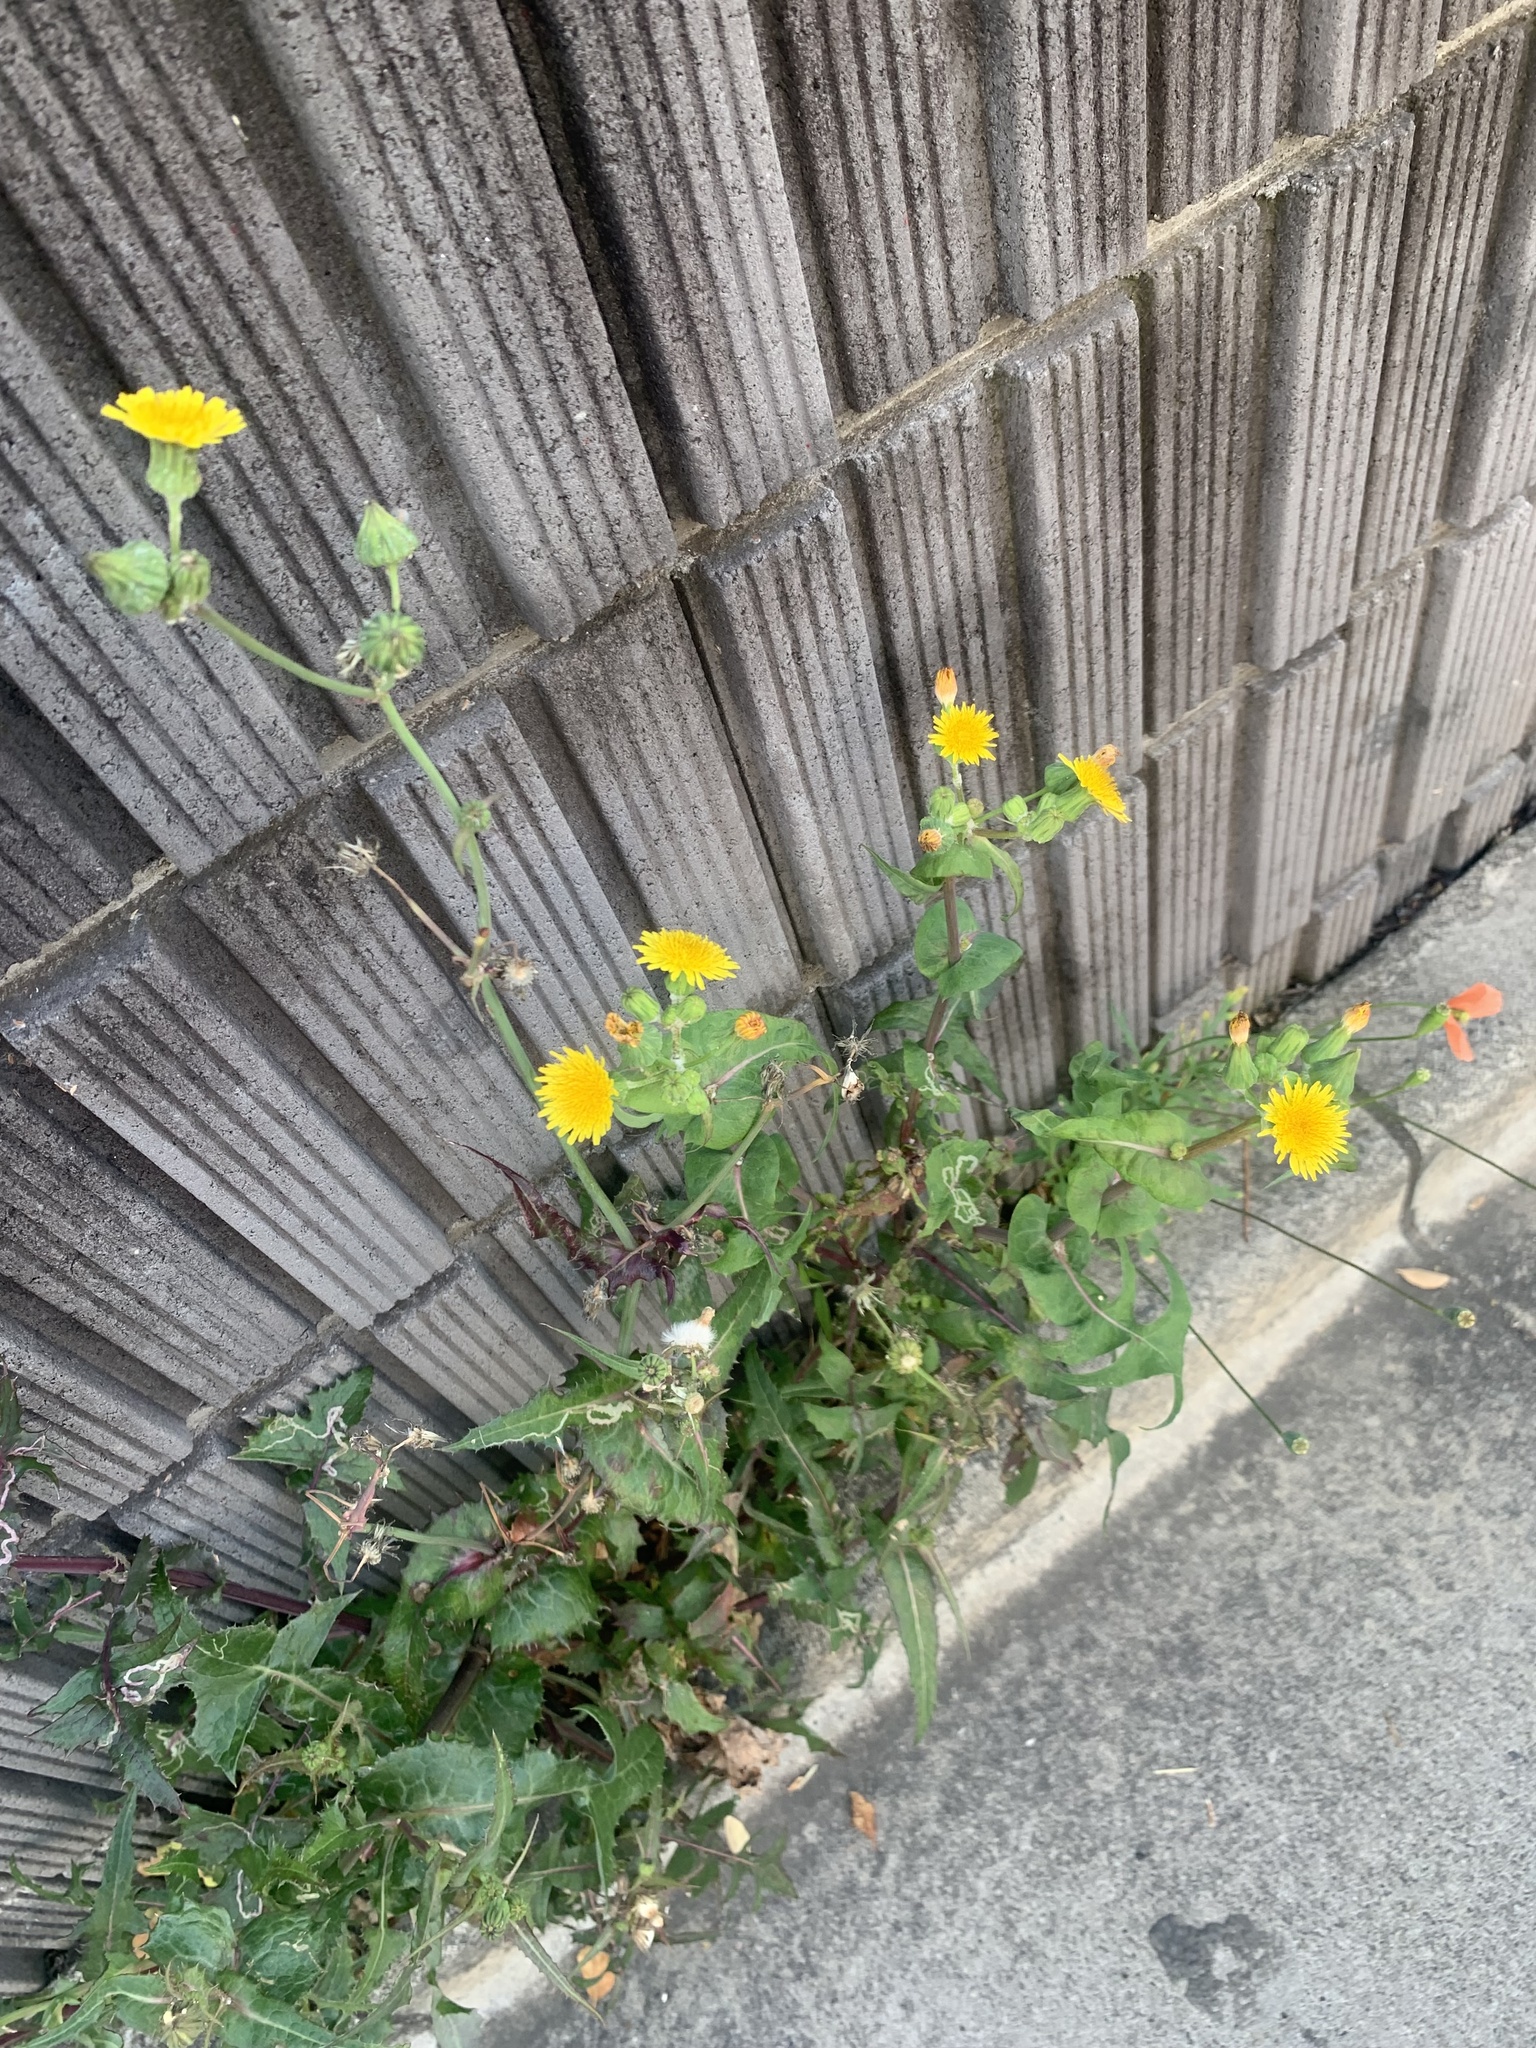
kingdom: Plantae
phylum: Tracheophyta
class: Magnoliopsida
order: Asterales
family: Asteraceae
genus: Sonchus
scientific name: Sonchus oleraceus
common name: Common sowthistle
